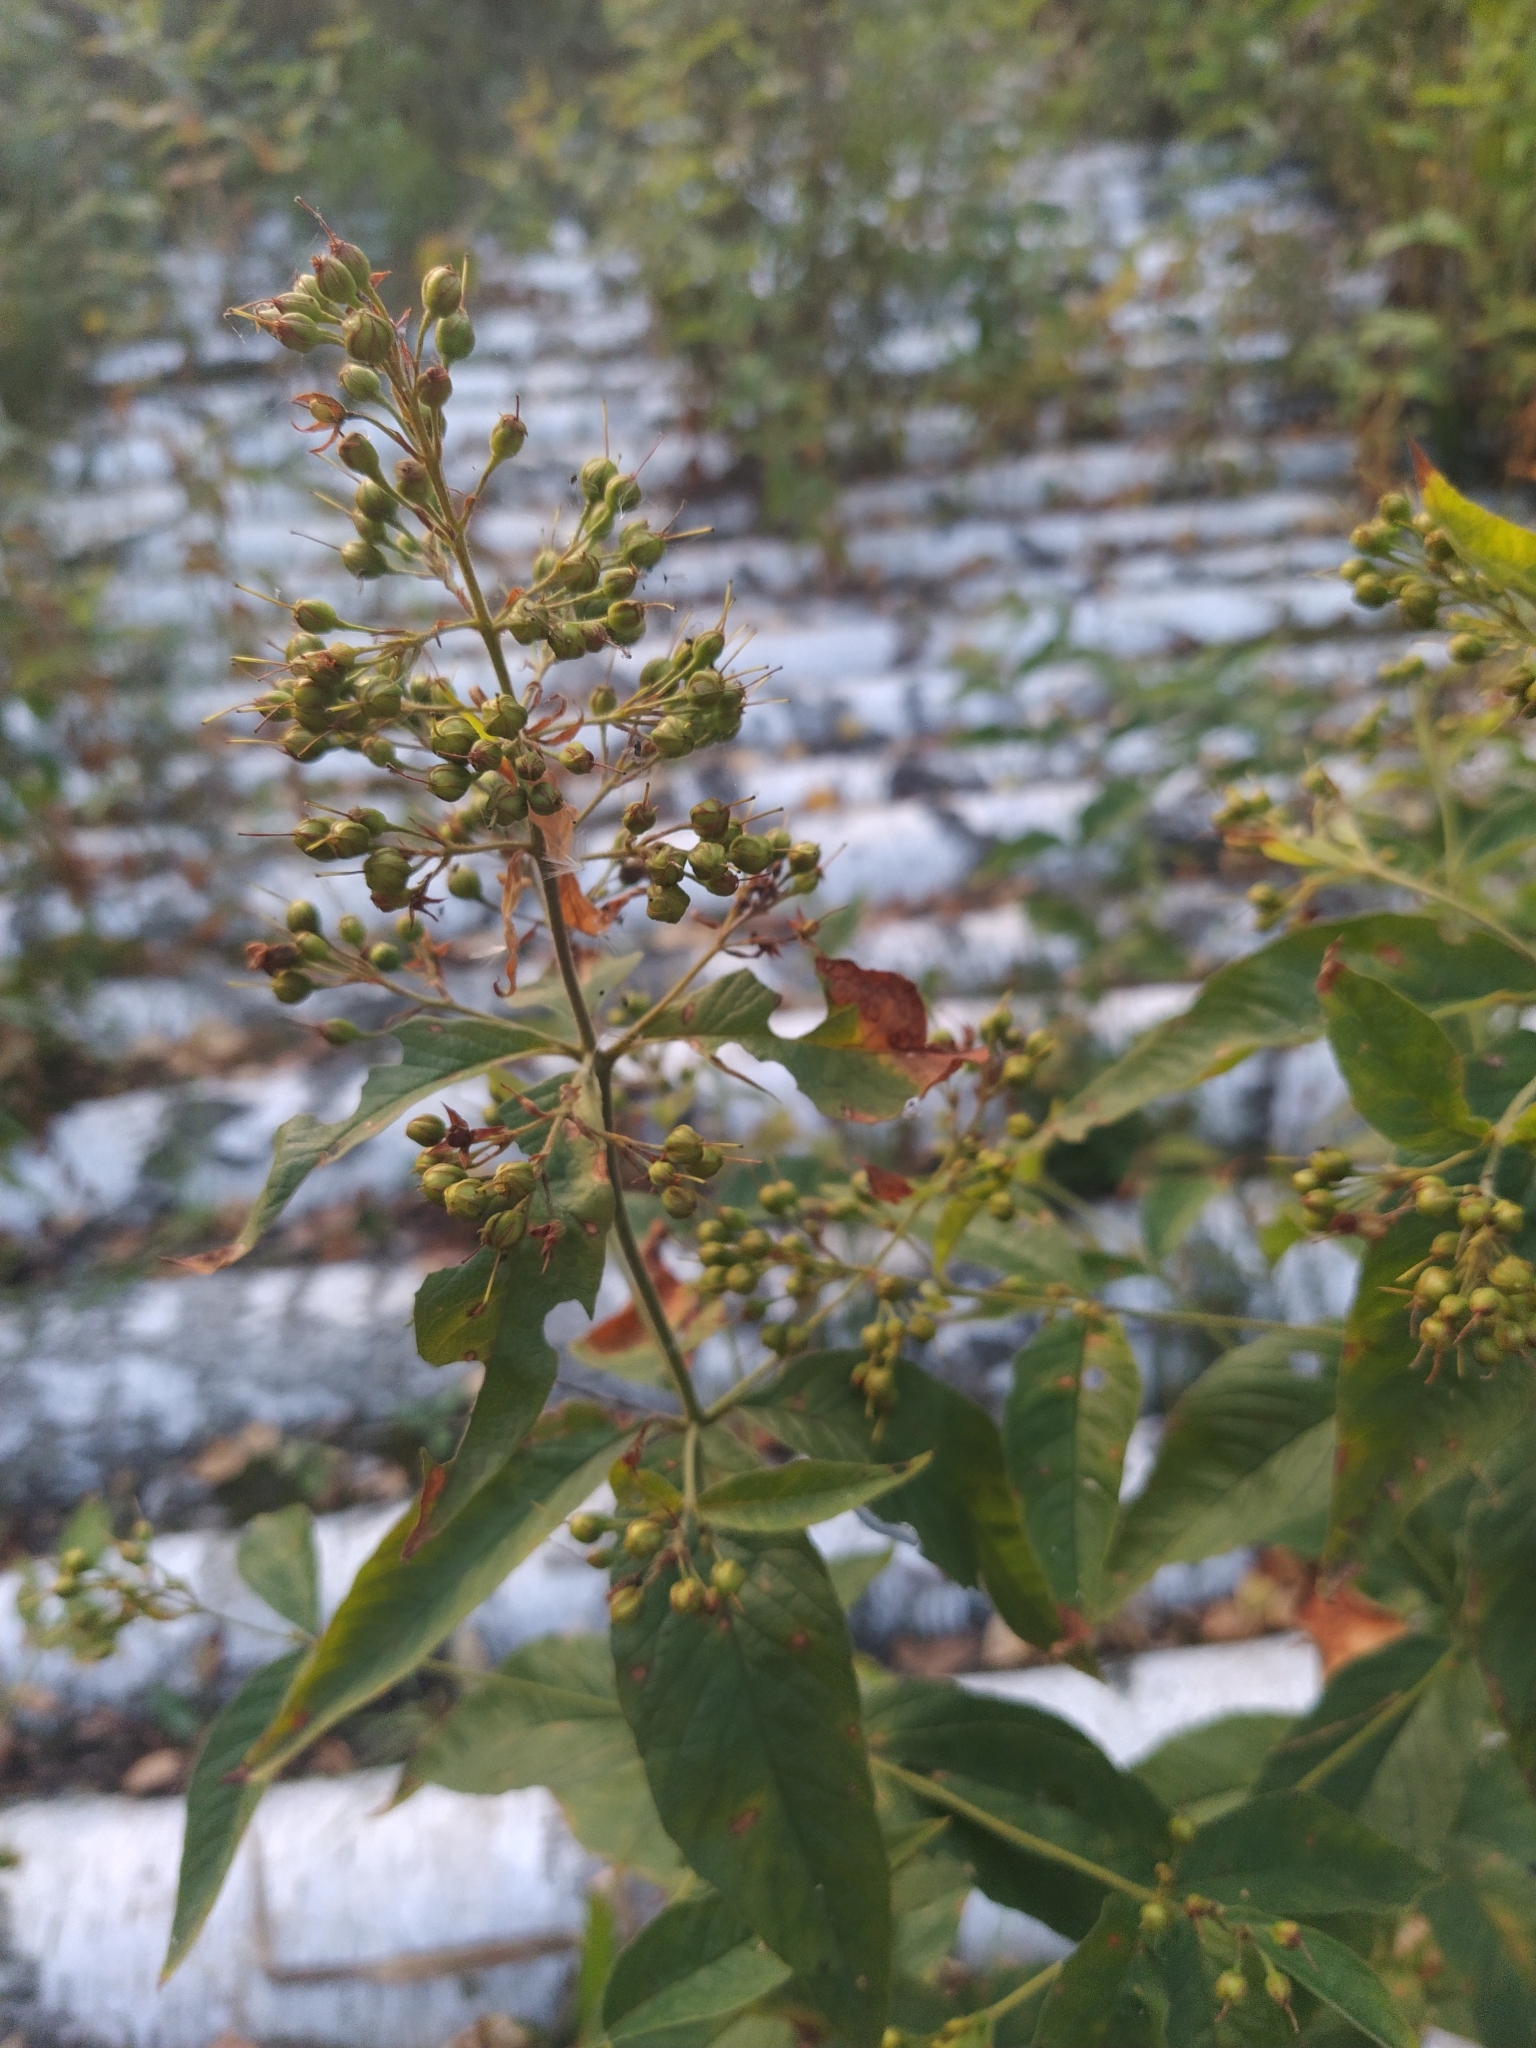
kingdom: Plantae
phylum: Tracheophyta
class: Magnoliopsida
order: Ericales
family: Primulaceae
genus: Lysimachia
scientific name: Lysimachia vulgaris
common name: Yellow loosestrife
